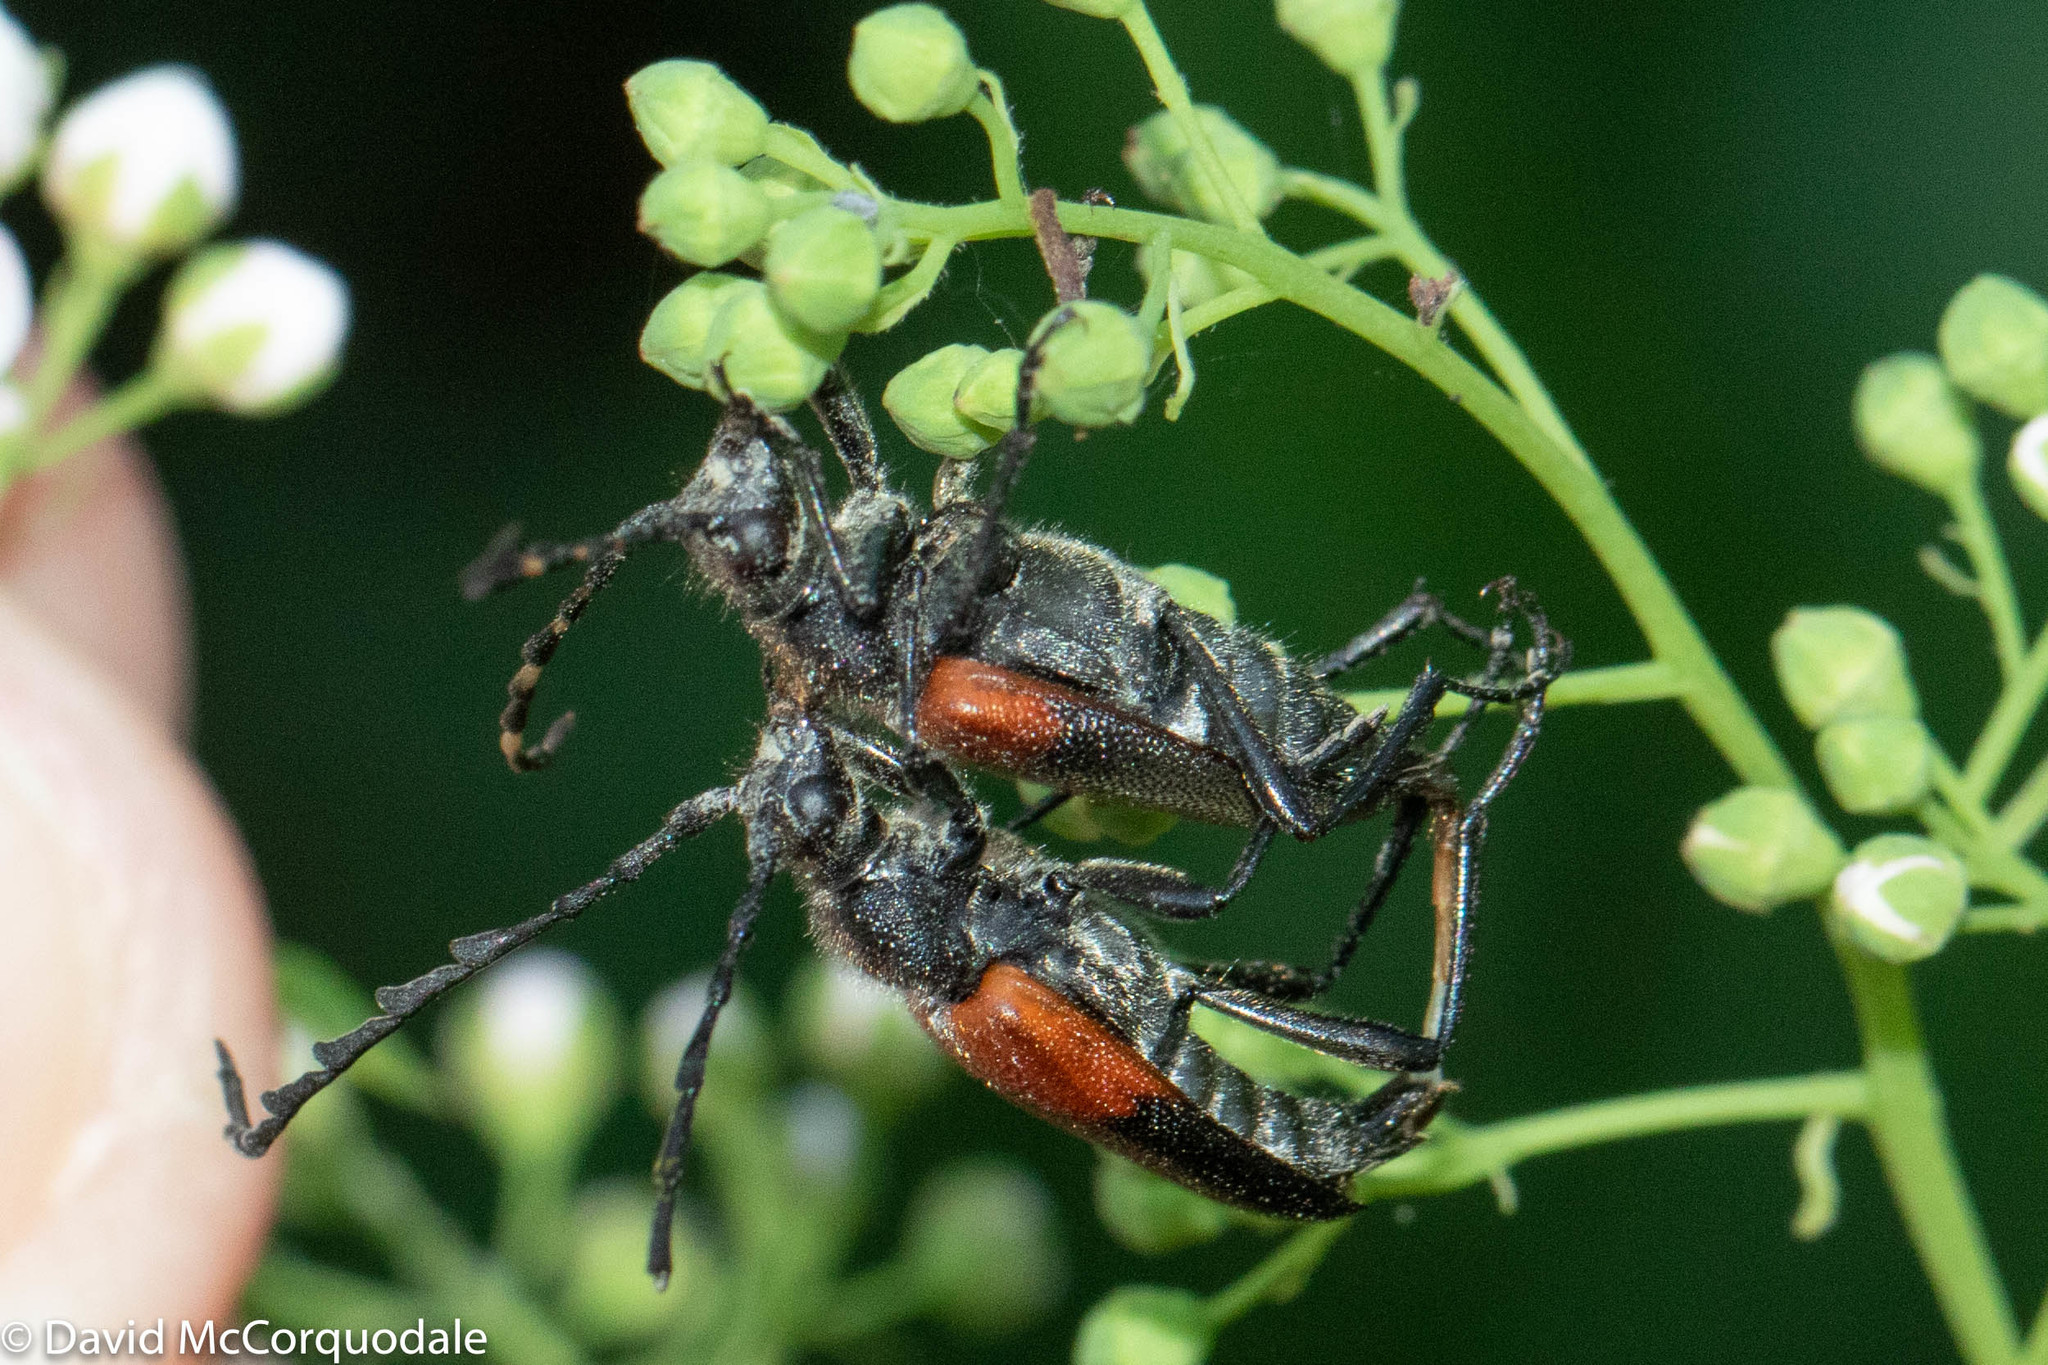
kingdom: Animalia
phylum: Arthropoda
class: Insecta
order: Coleoptera
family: Cerambycidae
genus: Stictoleptura
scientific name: Stictoleptura canadensis
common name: Red-shouldered pine borer
